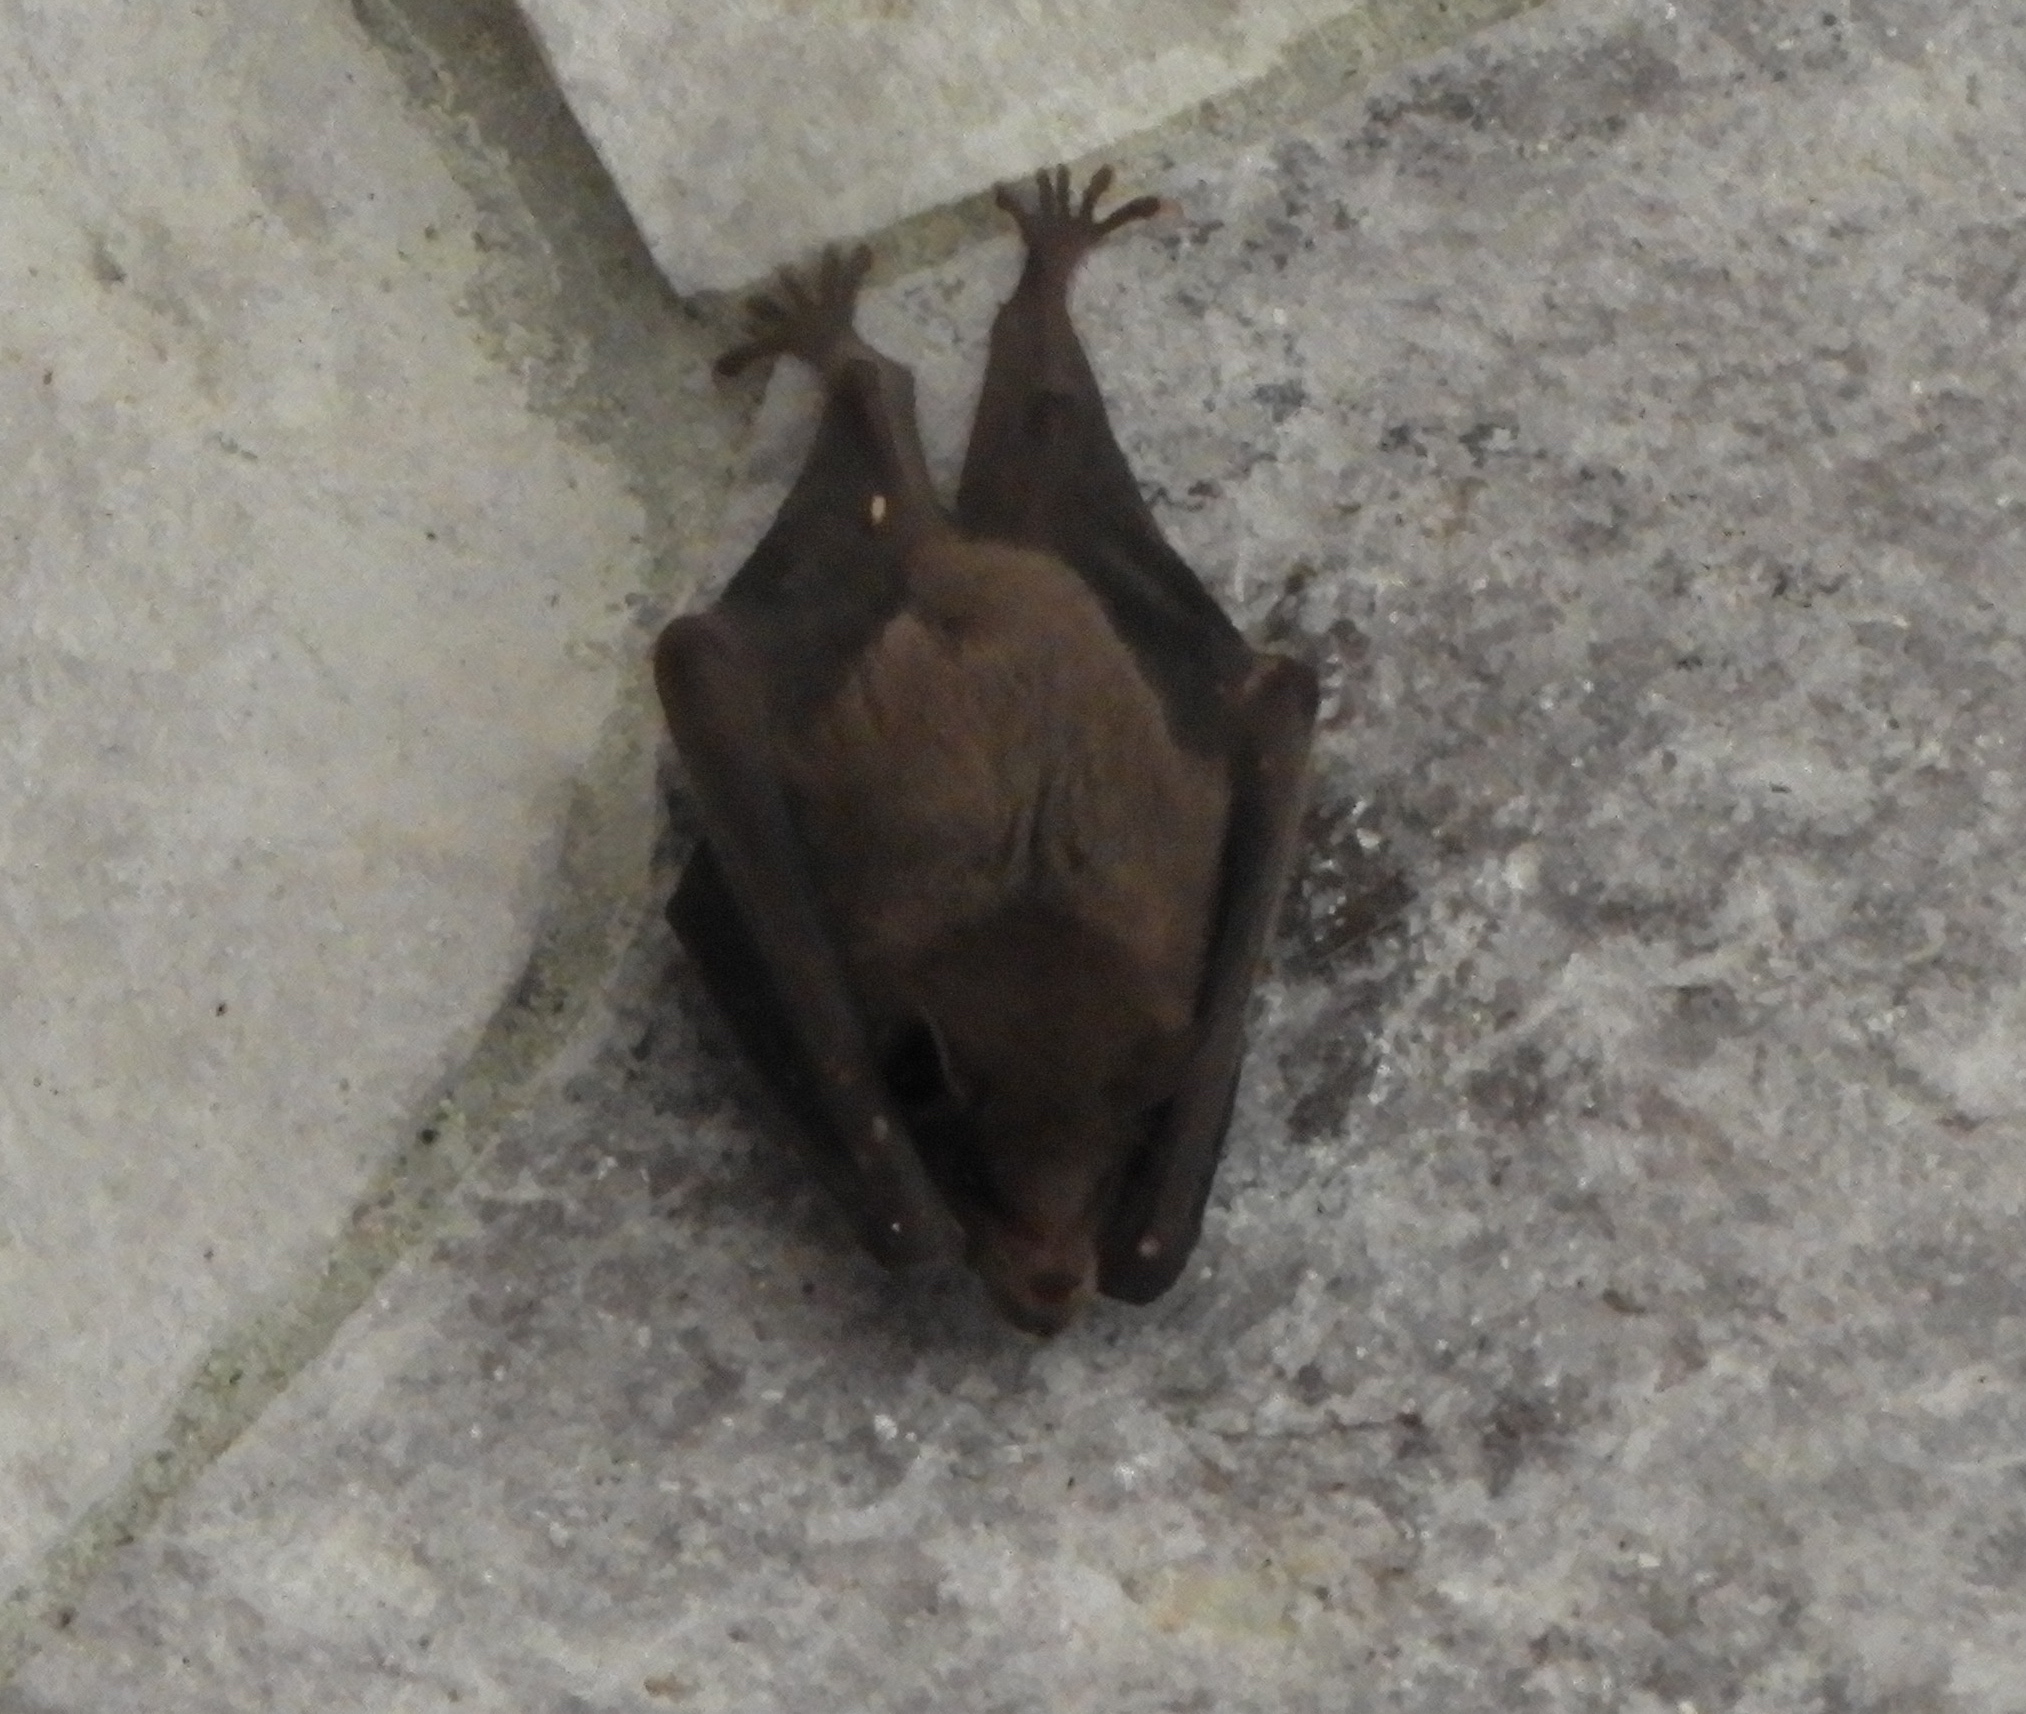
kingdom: Animalia
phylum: Chordata
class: Mammalia
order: Chiroptera
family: Phyllostomidae
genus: Leptonycteris
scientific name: Leptonycteris yerbabuenae
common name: Lesser long-nosed bat
